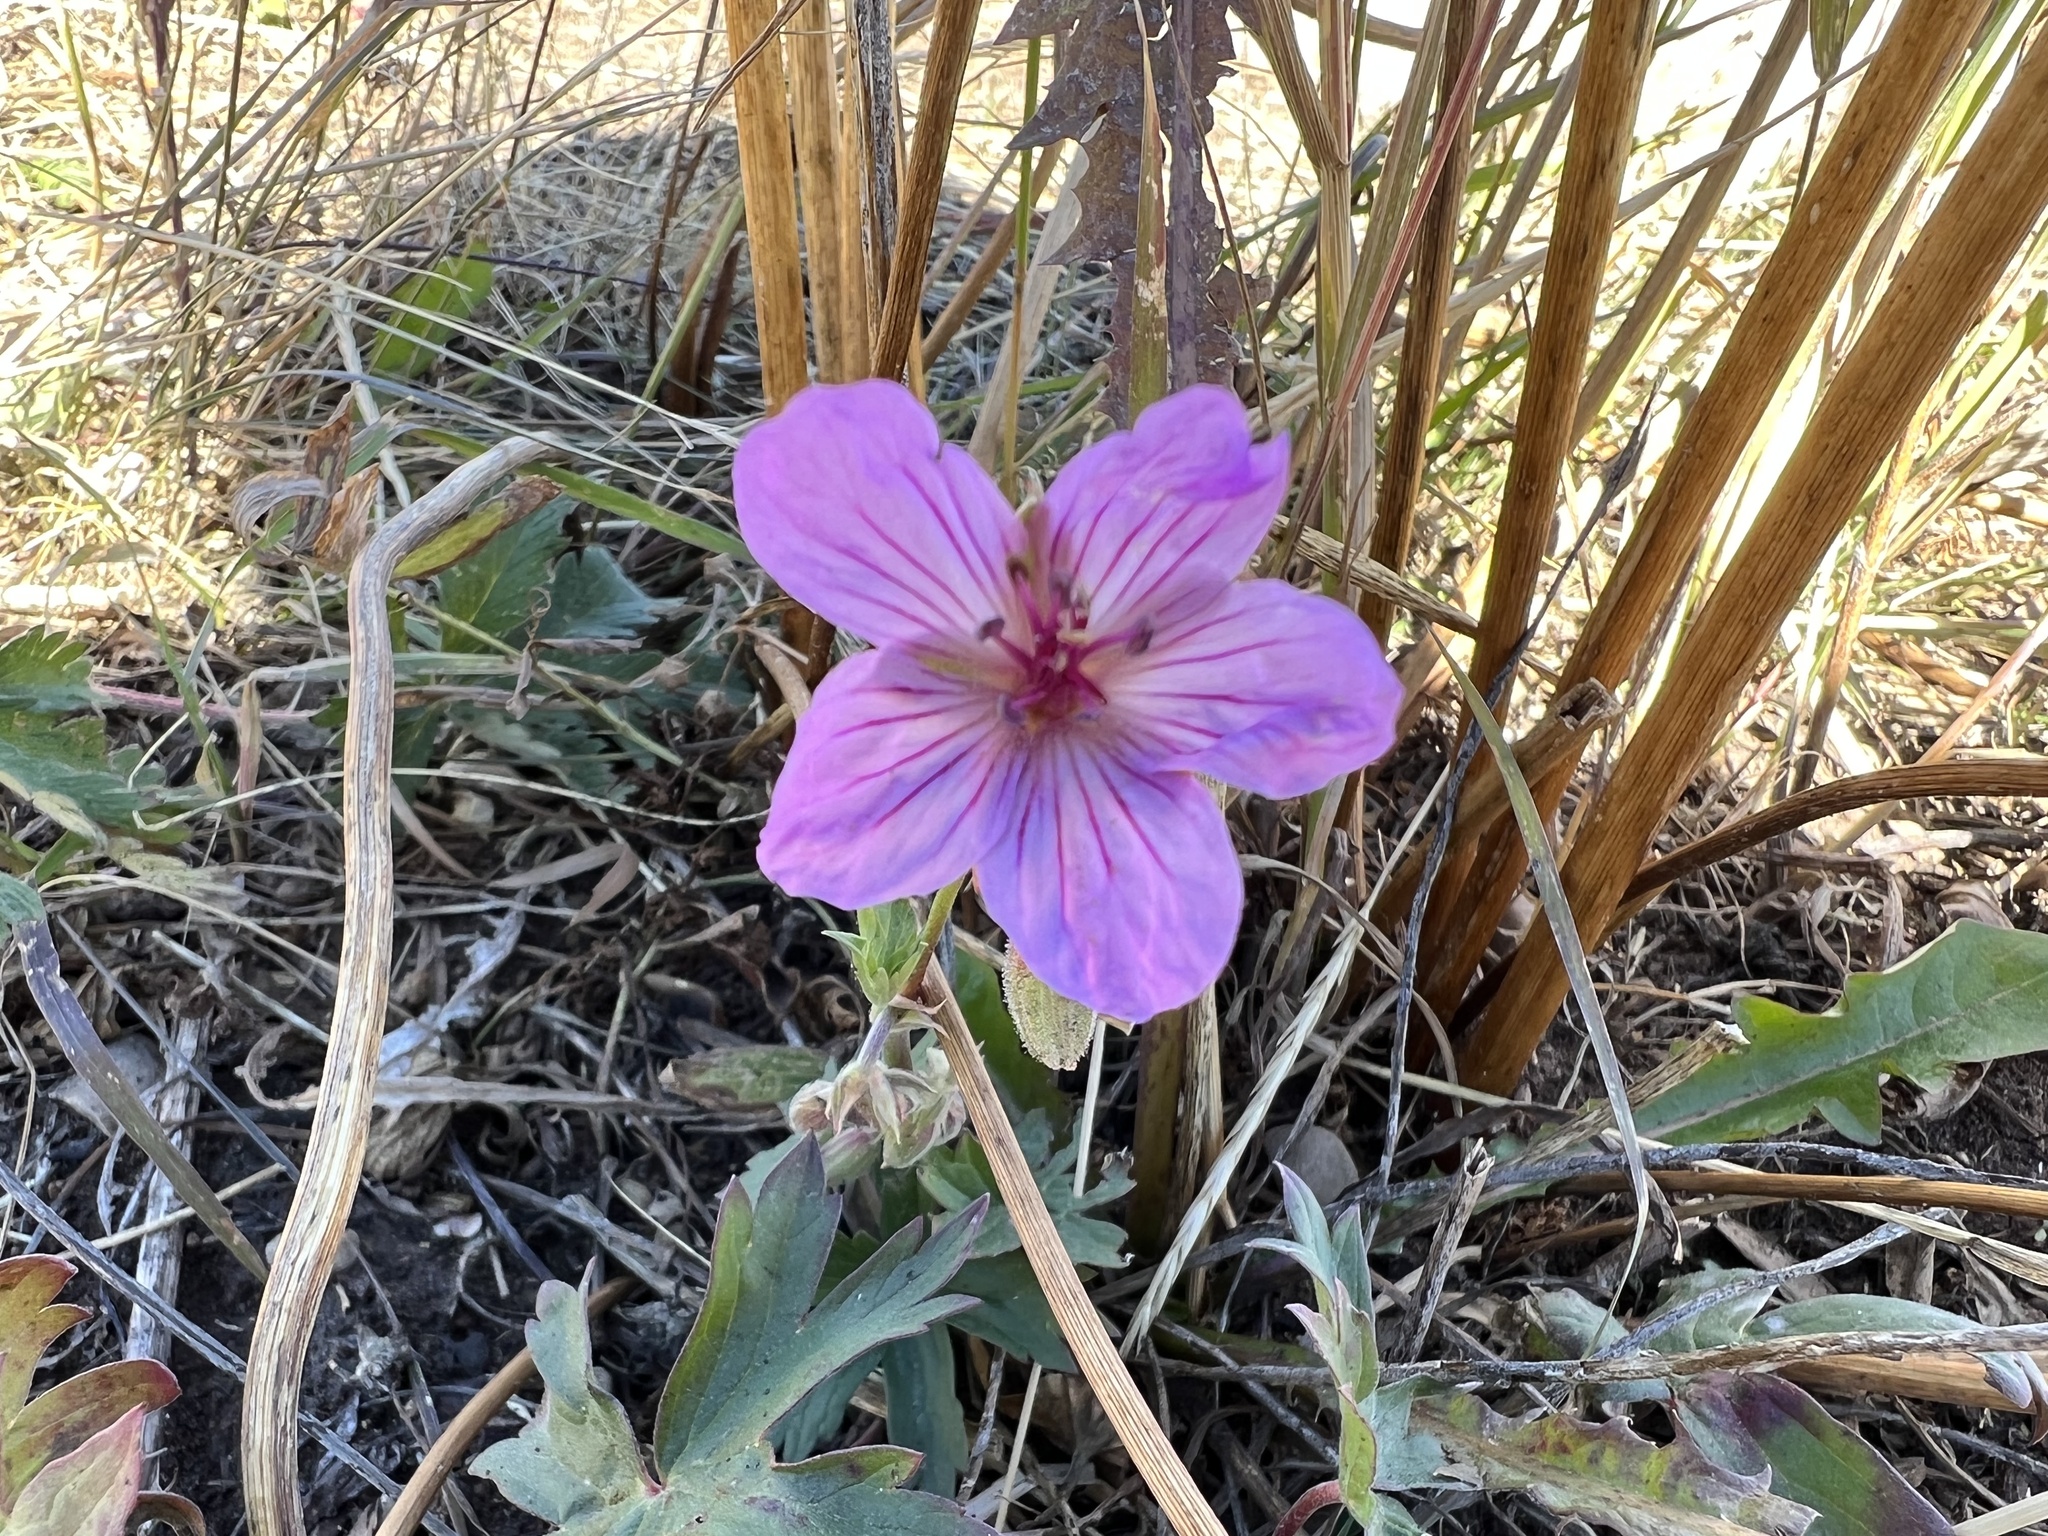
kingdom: Plantae
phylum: Tracheophyta
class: Magnoliopsida
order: Geraniales
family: Geraniaceae
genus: Geranium
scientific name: Geranium viscosissimum
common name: Purple geranium
